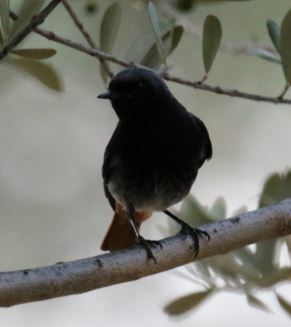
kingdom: Animalia
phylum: Chordata
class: Aves
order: Passeriformes
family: Muscicapidae
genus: Phoenicurus
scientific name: Phoenicurus ochruros
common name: Black redstart
